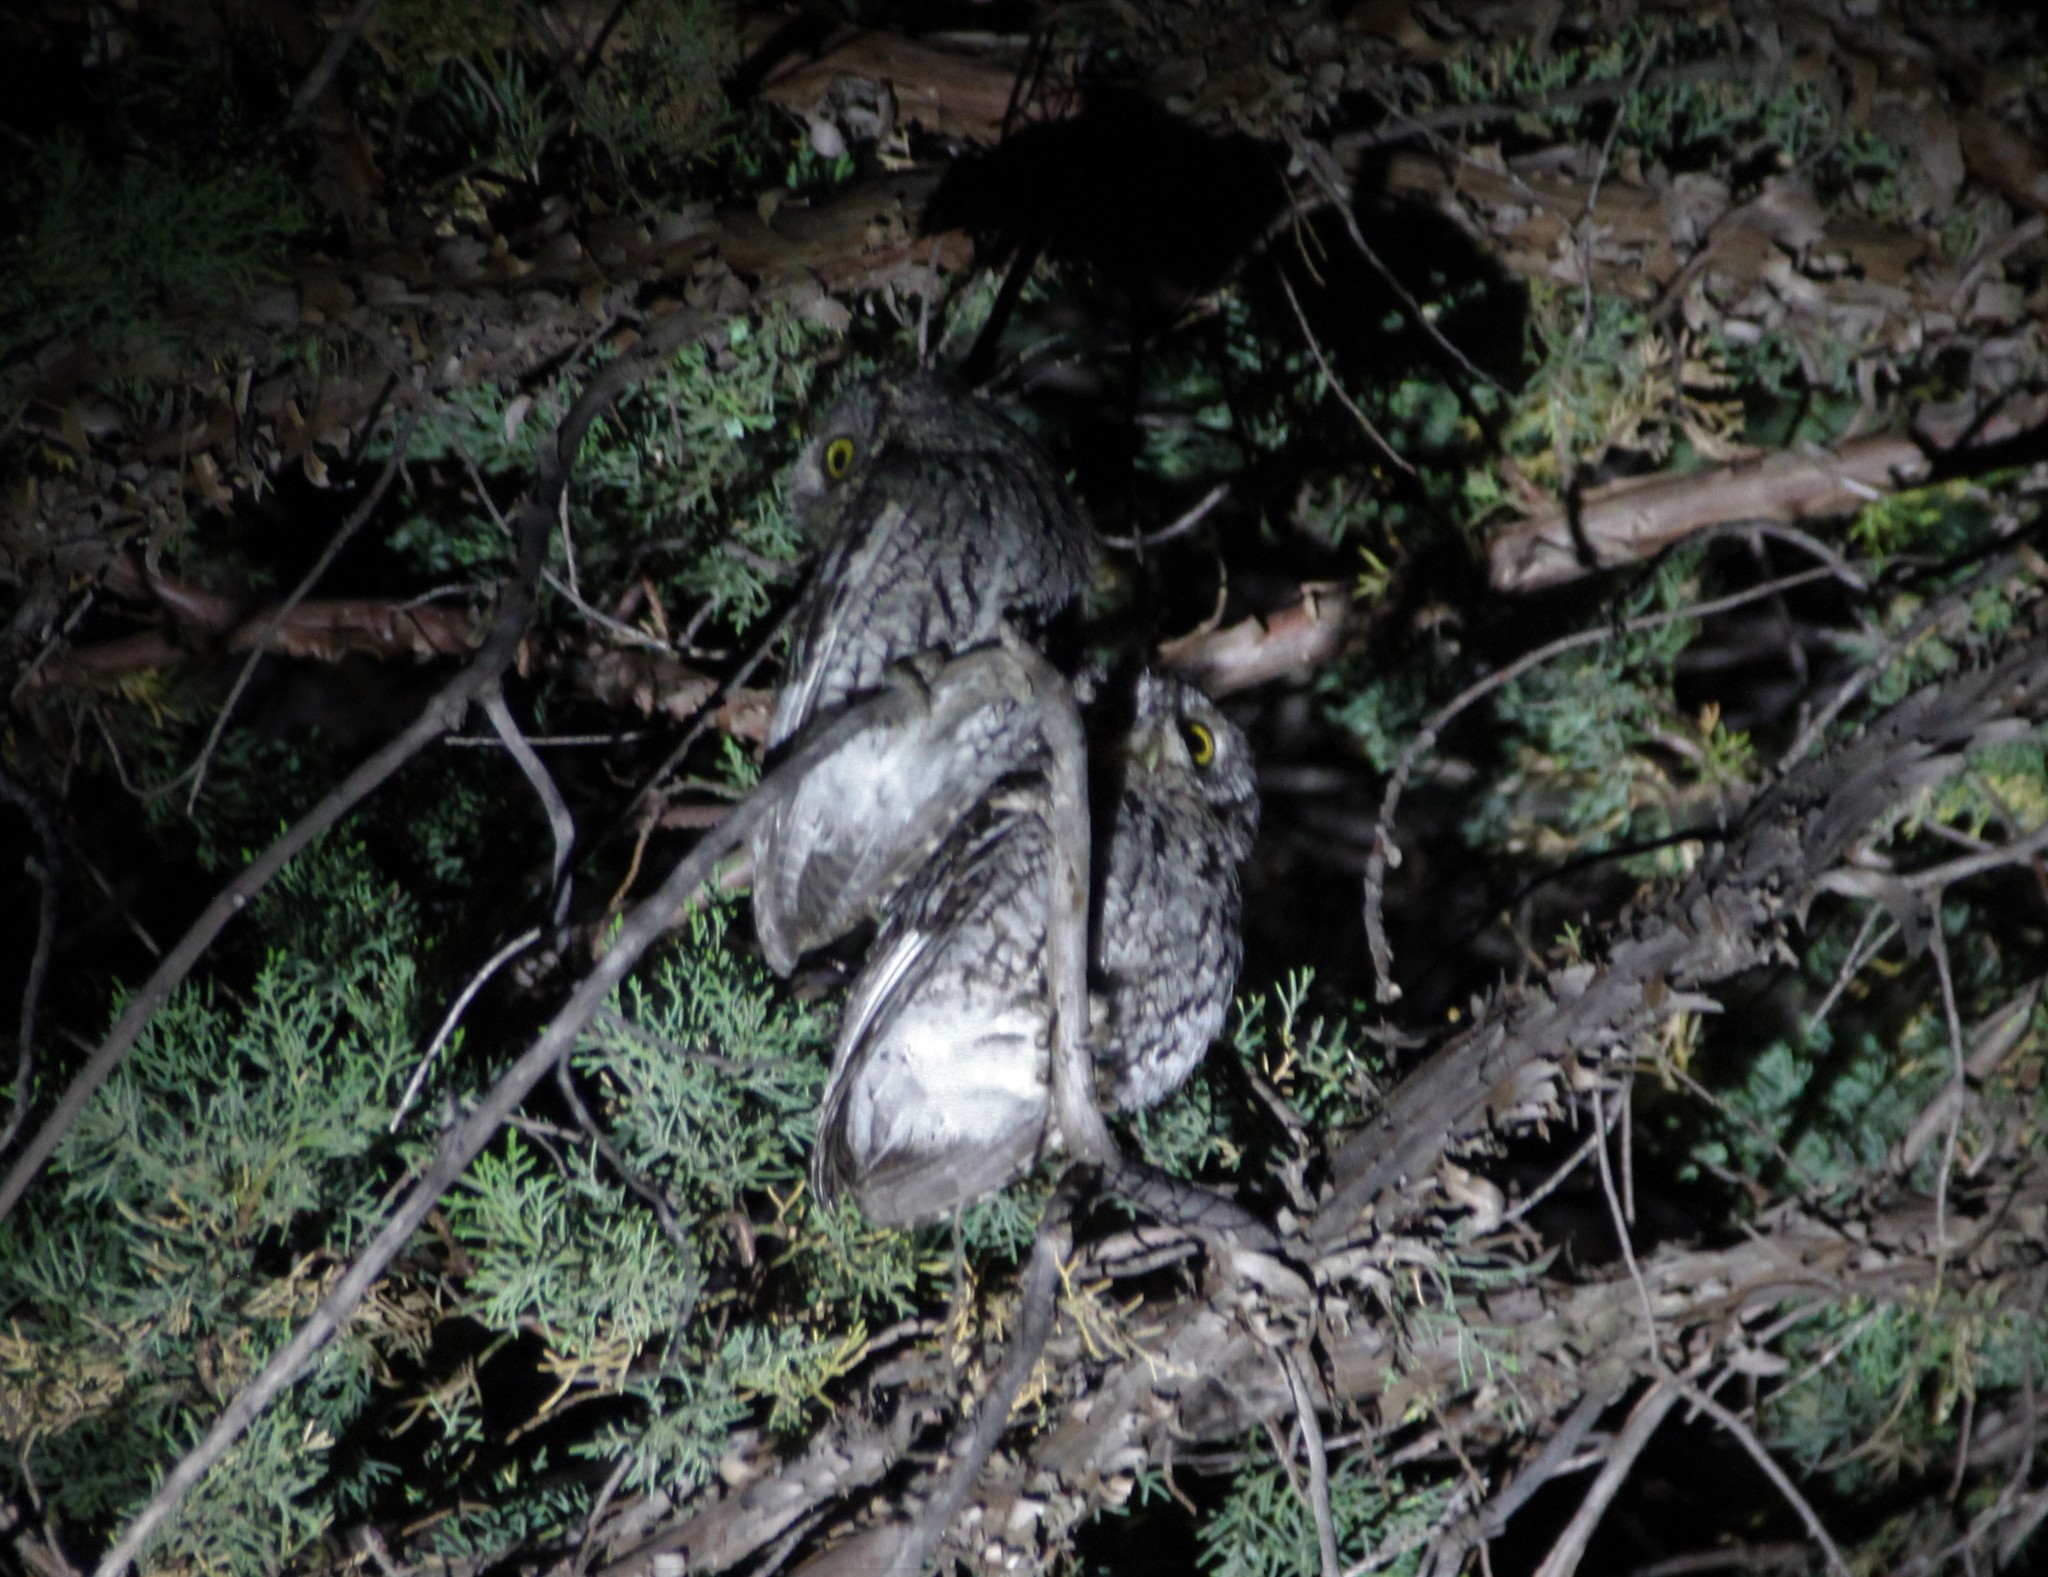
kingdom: Animalia
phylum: Chordata
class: Aves
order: Strigiformes
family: Strigidae
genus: Megascops
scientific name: Megascops trichopsis
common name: Whiskered screech-owl
